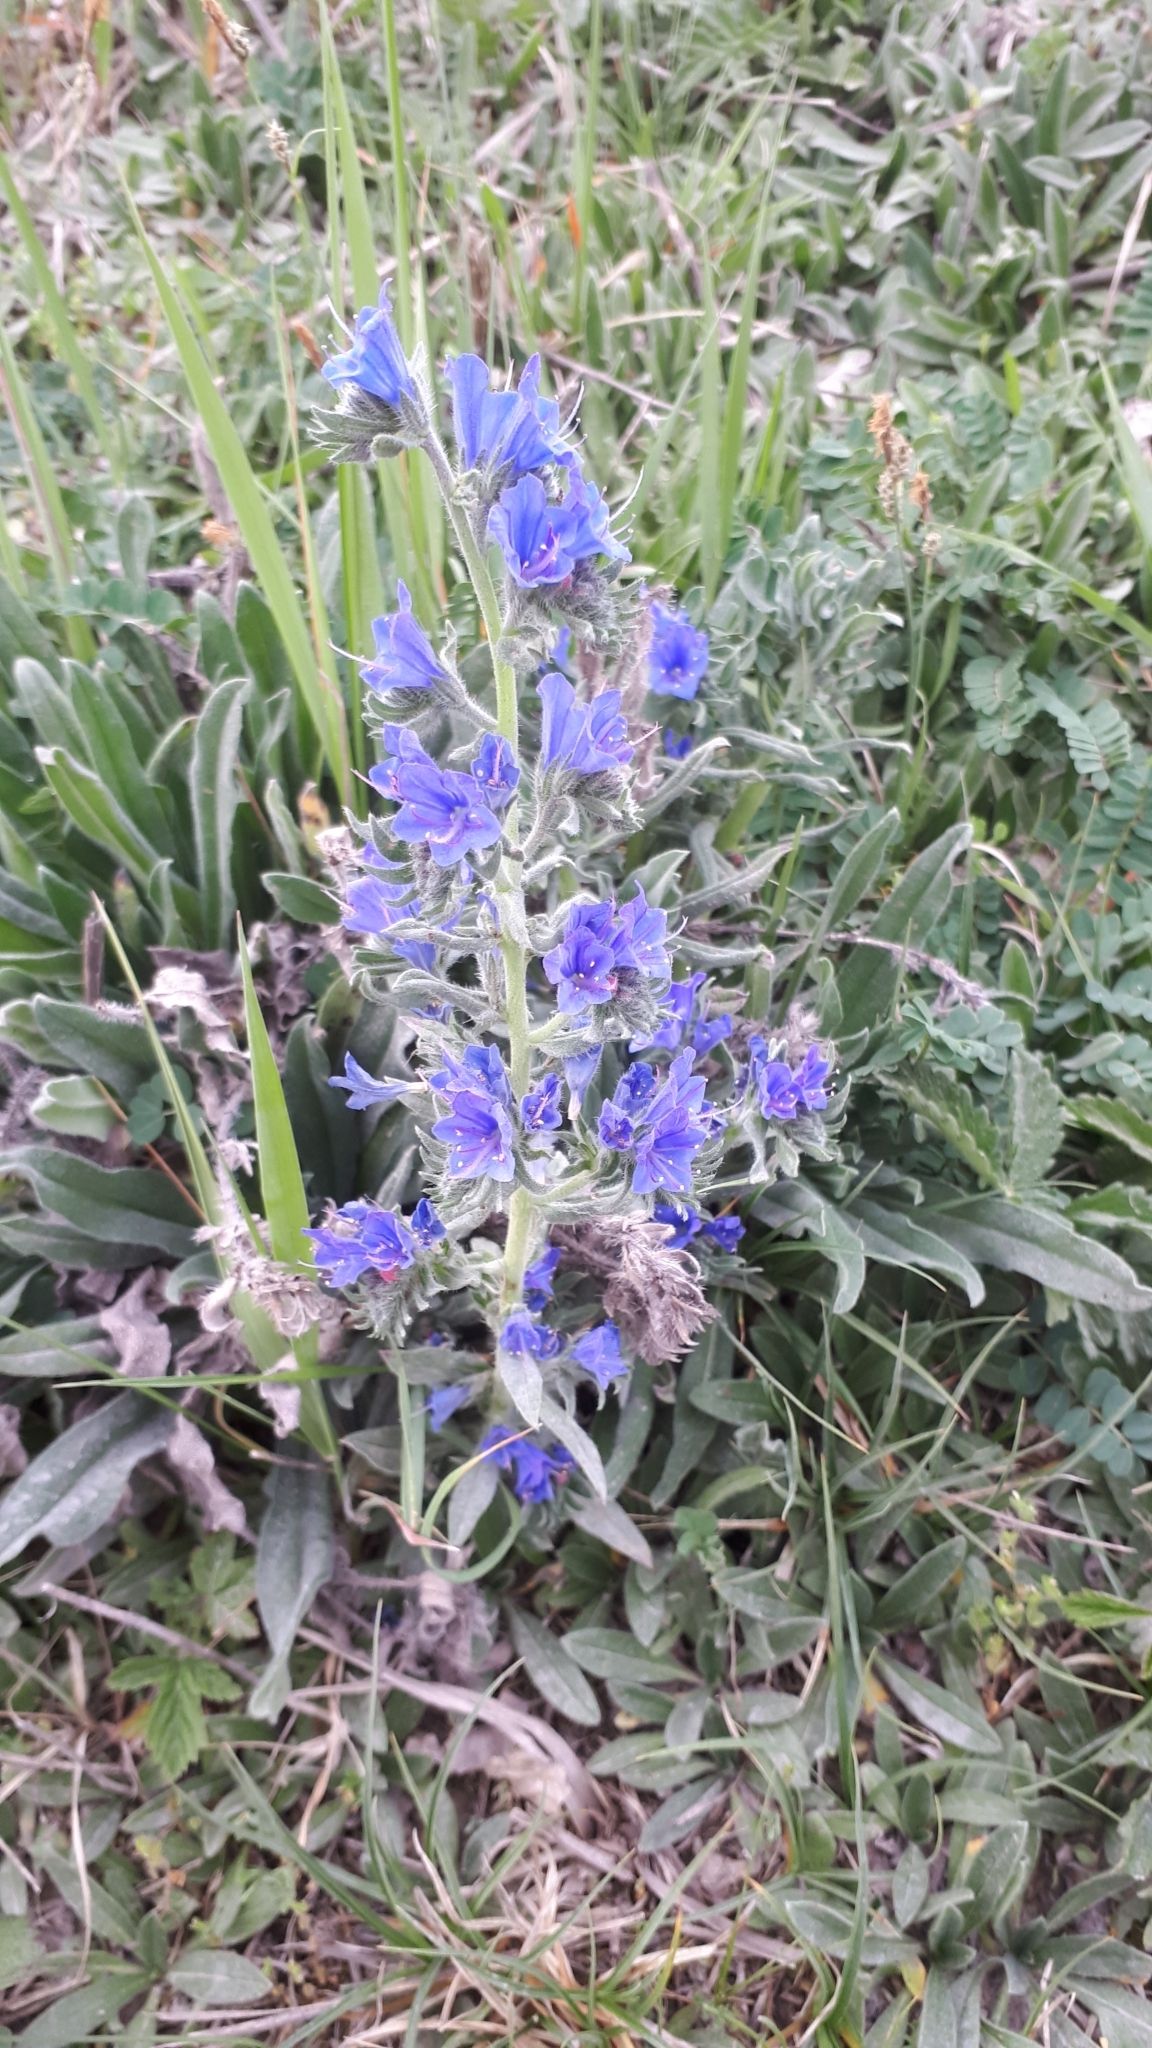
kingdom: Plantae
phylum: Tracheophyta
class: Magnoliopsida
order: Boraginales
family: Boraginaceae
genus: Echium
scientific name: Echium vulgare
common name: Common viper's bugloss
